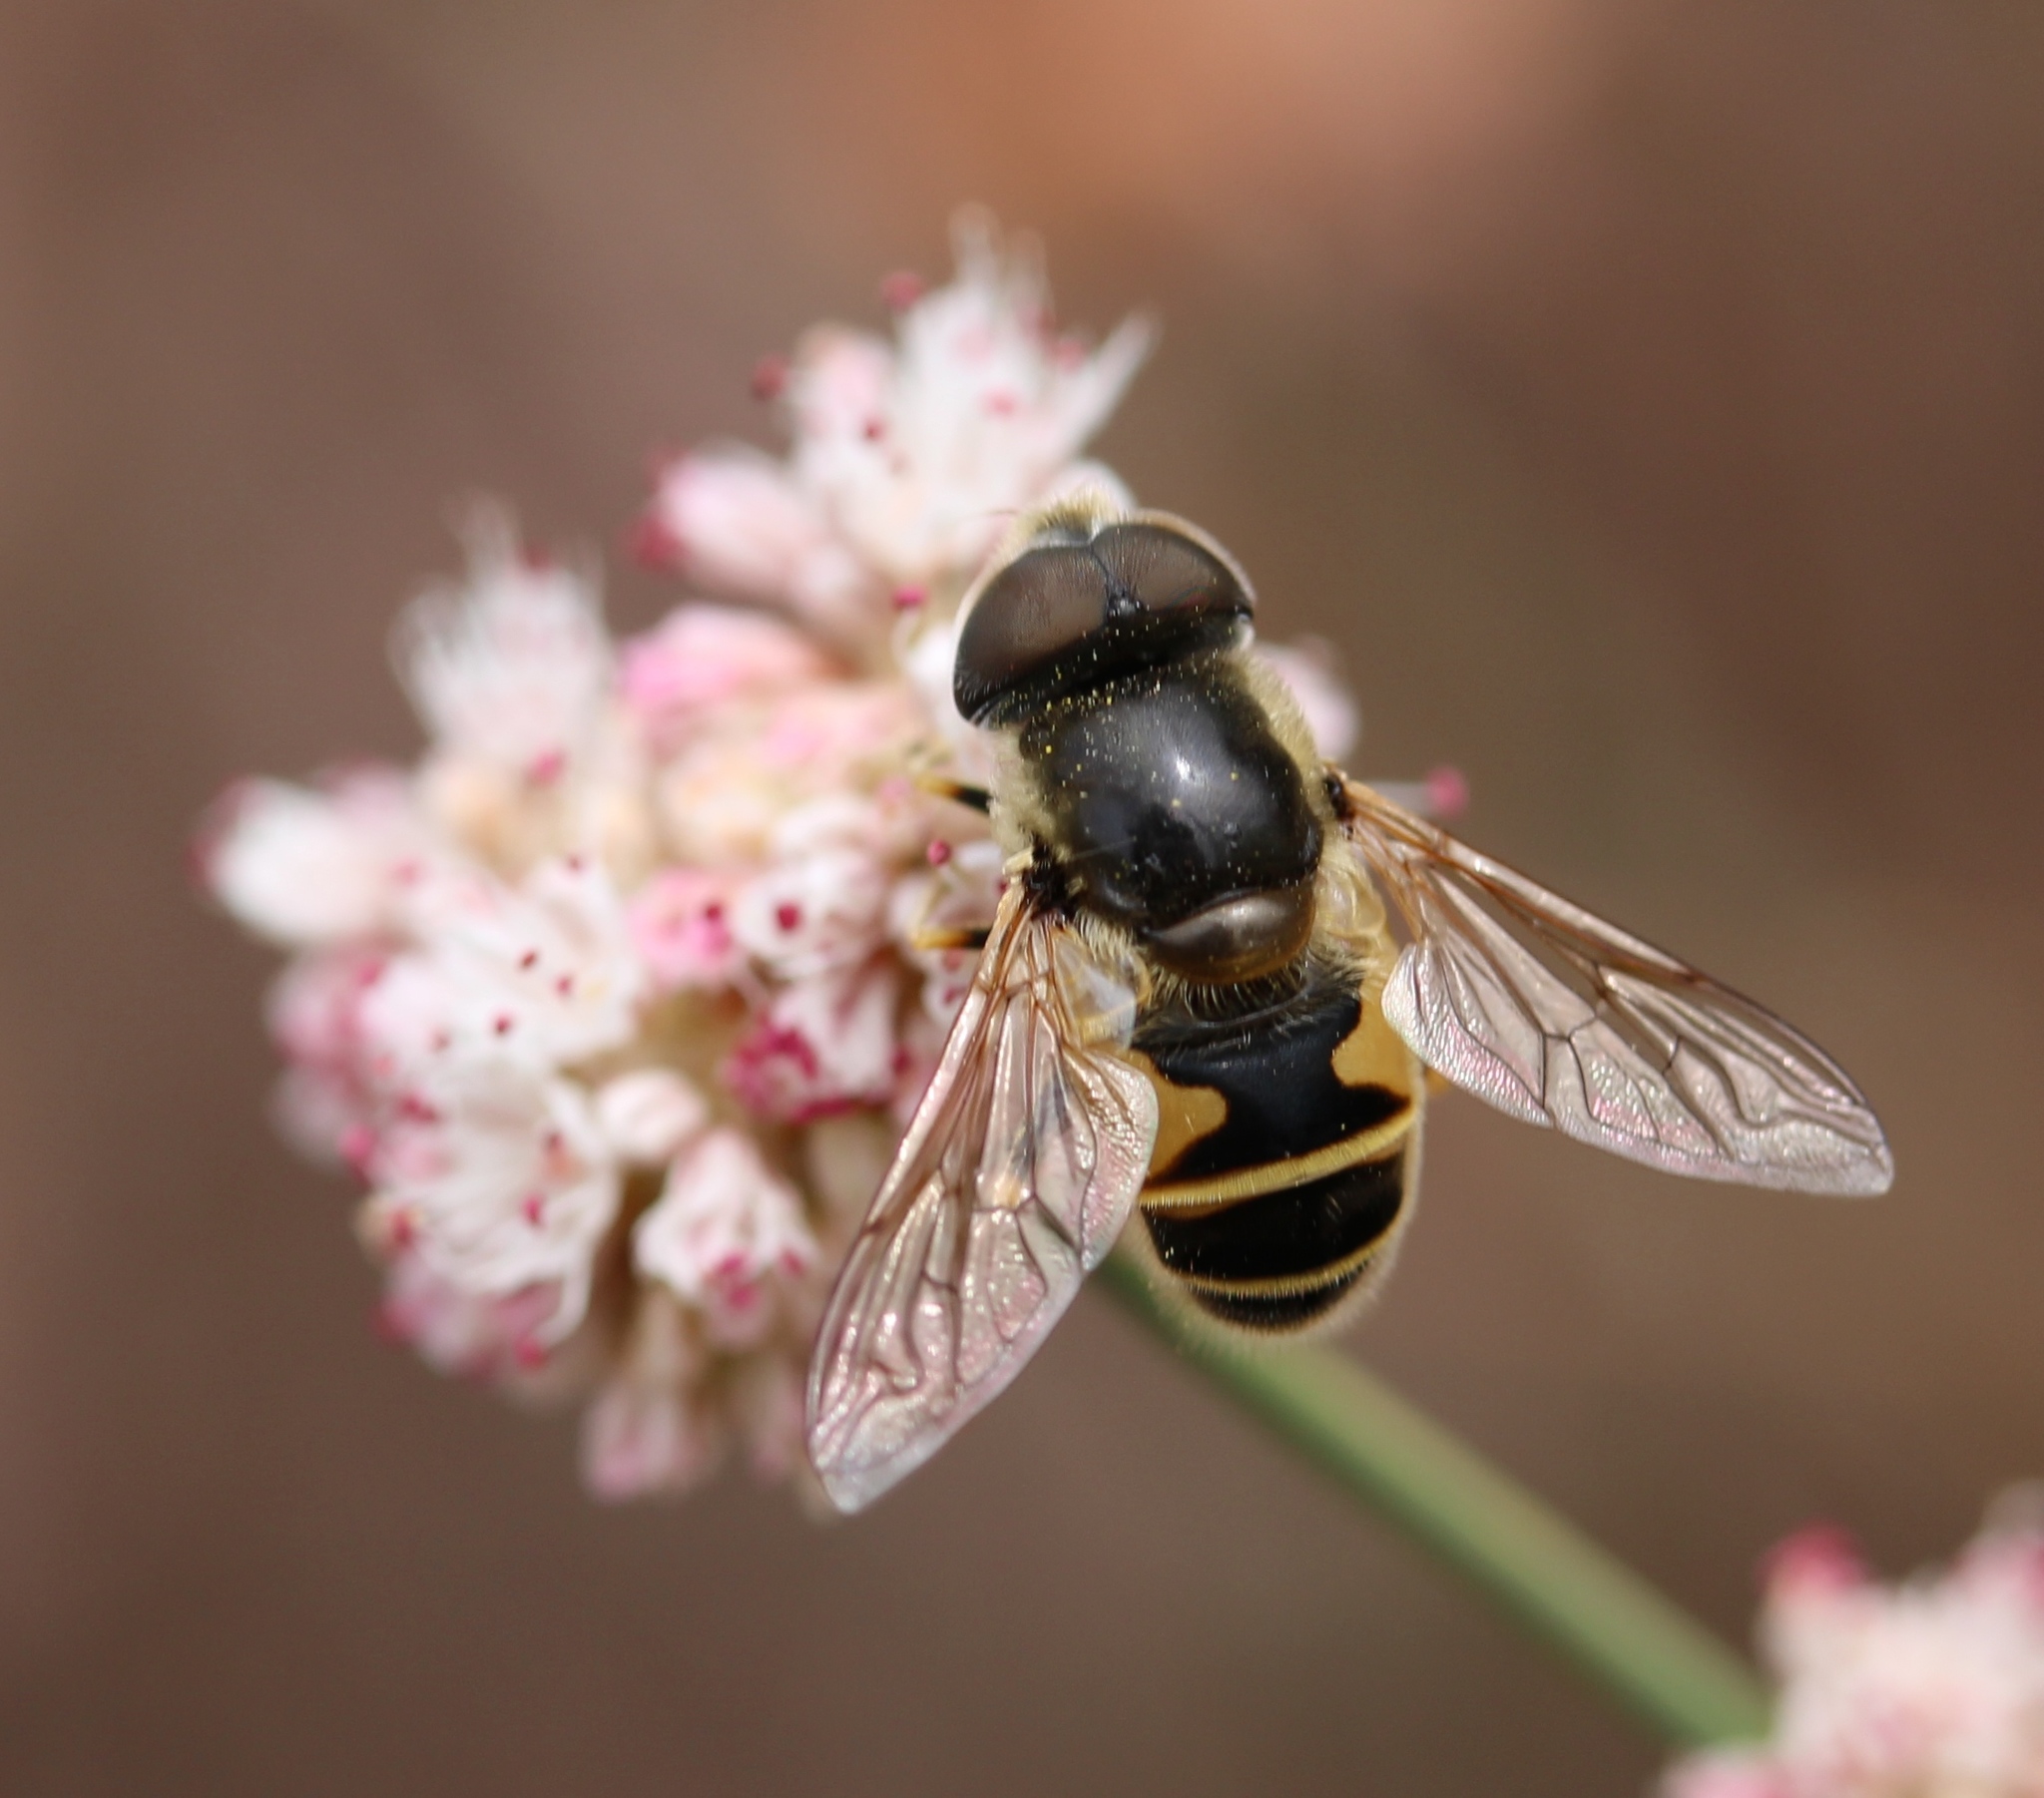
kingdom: Animalia
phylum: Arthropoda
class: Insecta
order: Diptera
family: Syrphidae
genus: Eristalis
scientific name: Eristalis hirta
